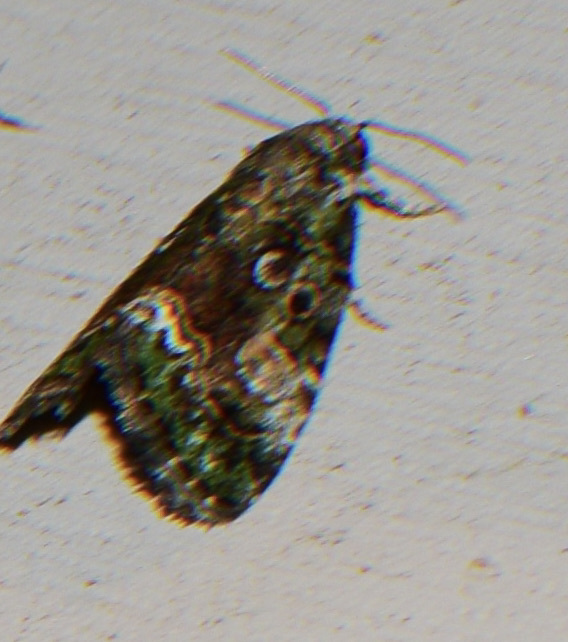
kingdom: Animalia
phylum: Arthropoda
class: Insecta
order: Lepidoptera
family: Noctuidae
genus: Lithacodia
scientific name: Lithacodia musta
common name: Small mossy glyph
